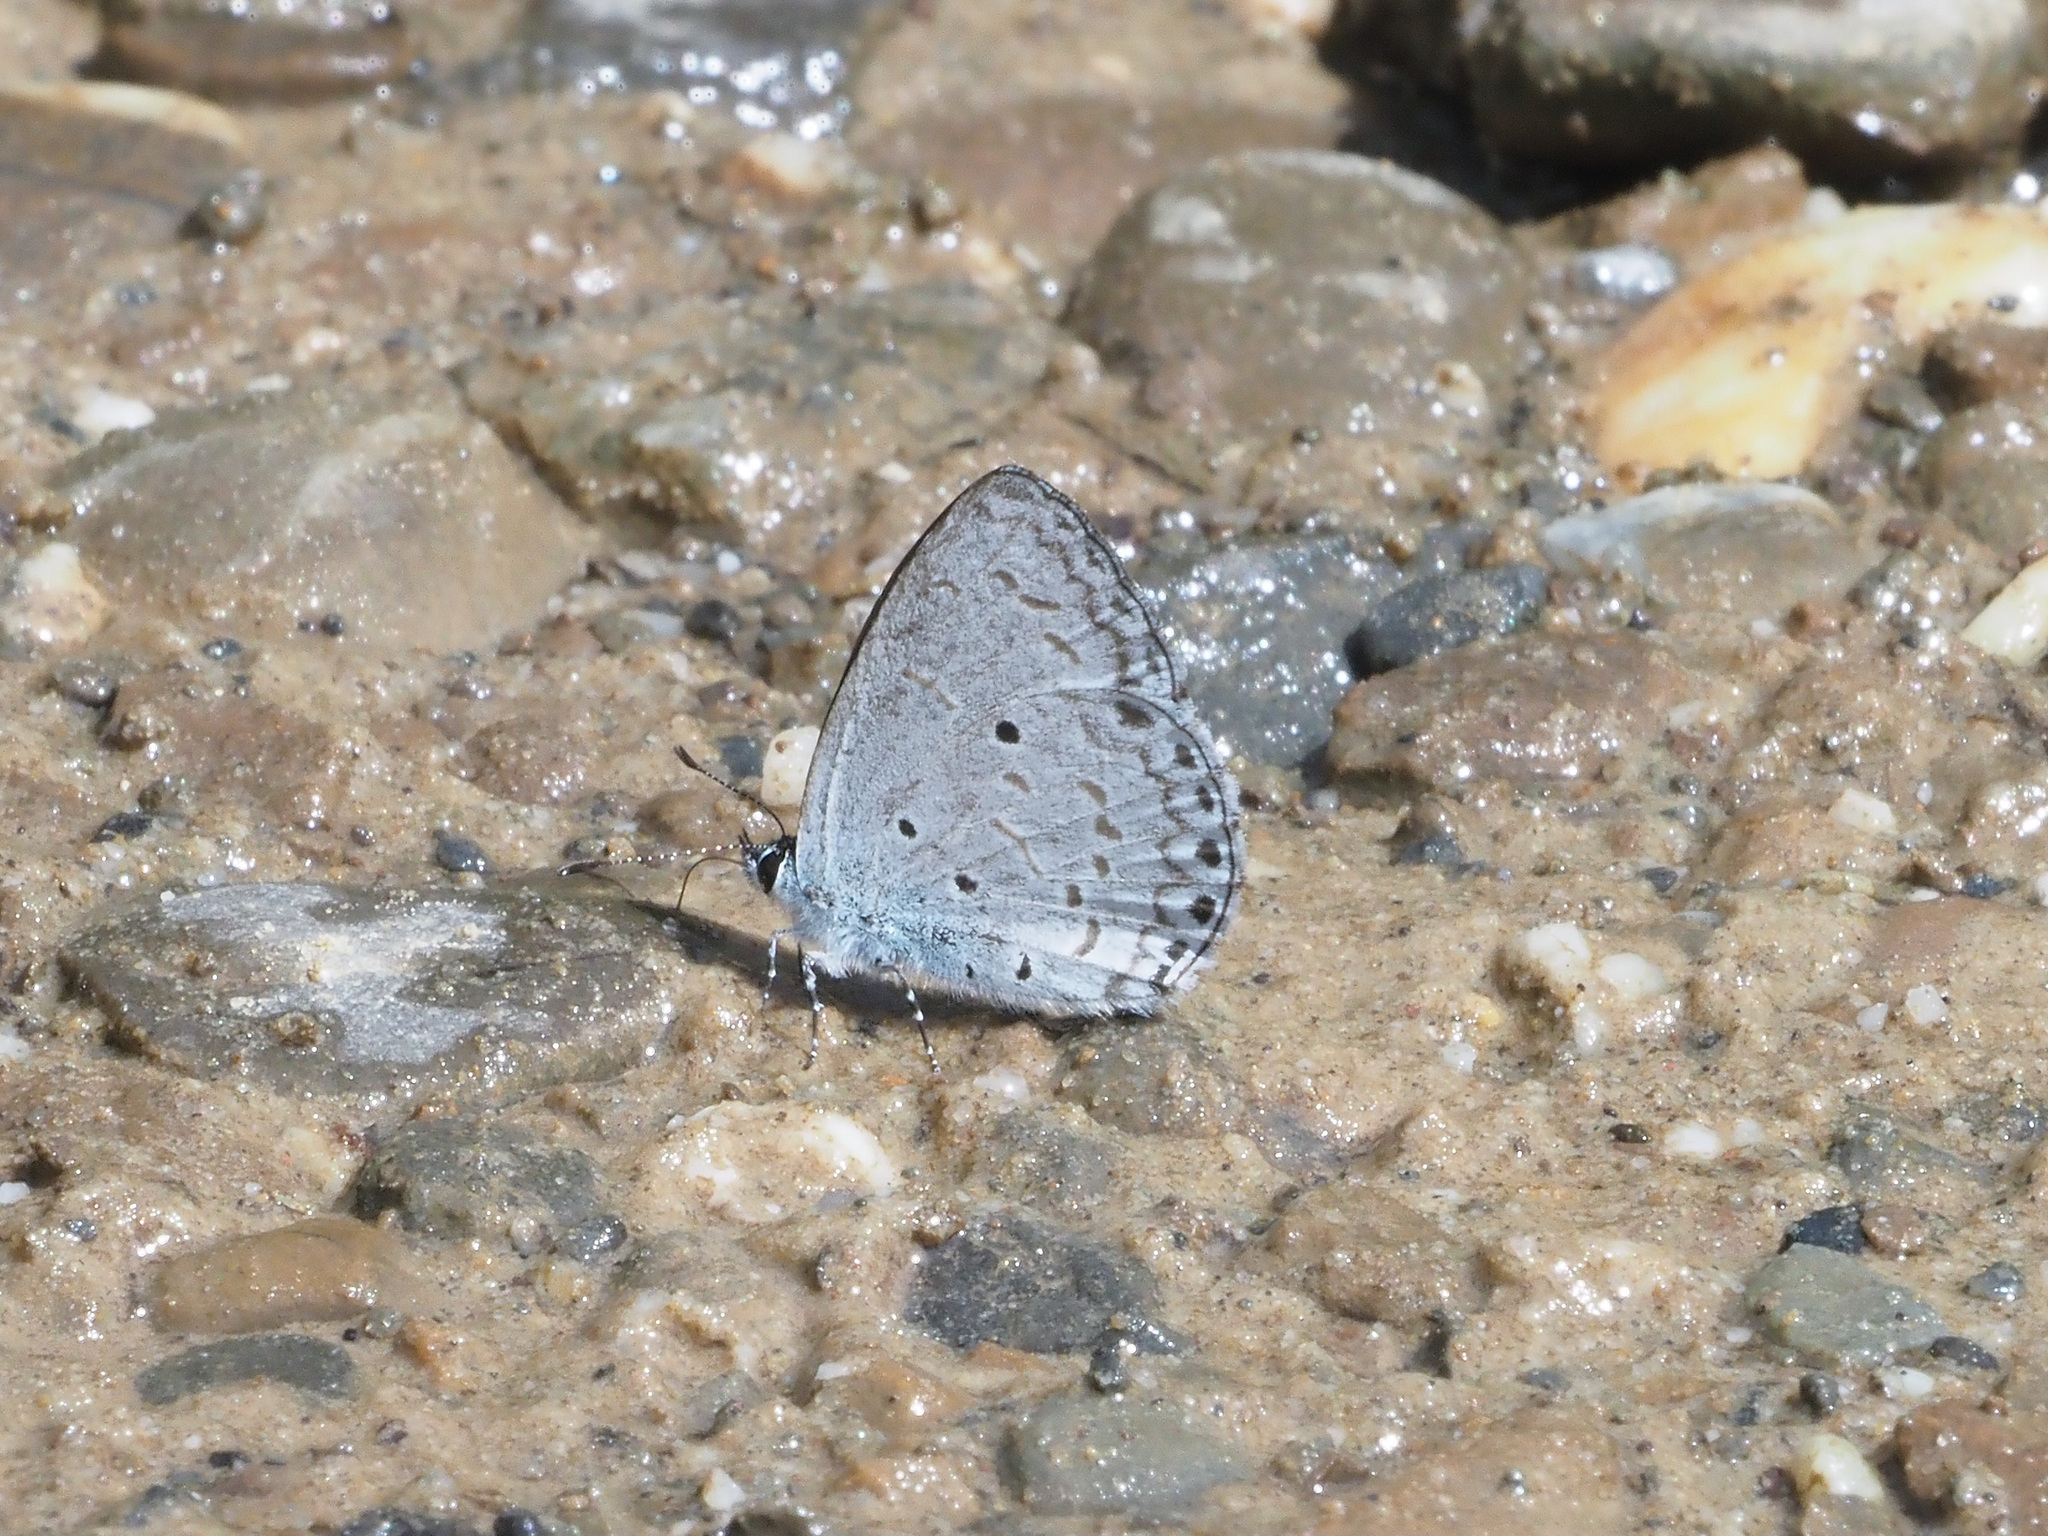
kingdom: Animalia
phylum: Arthropoda
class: Insecta
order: Lepidoptera
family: Lycaenidae
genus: Celastrina
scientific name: Celastrina
